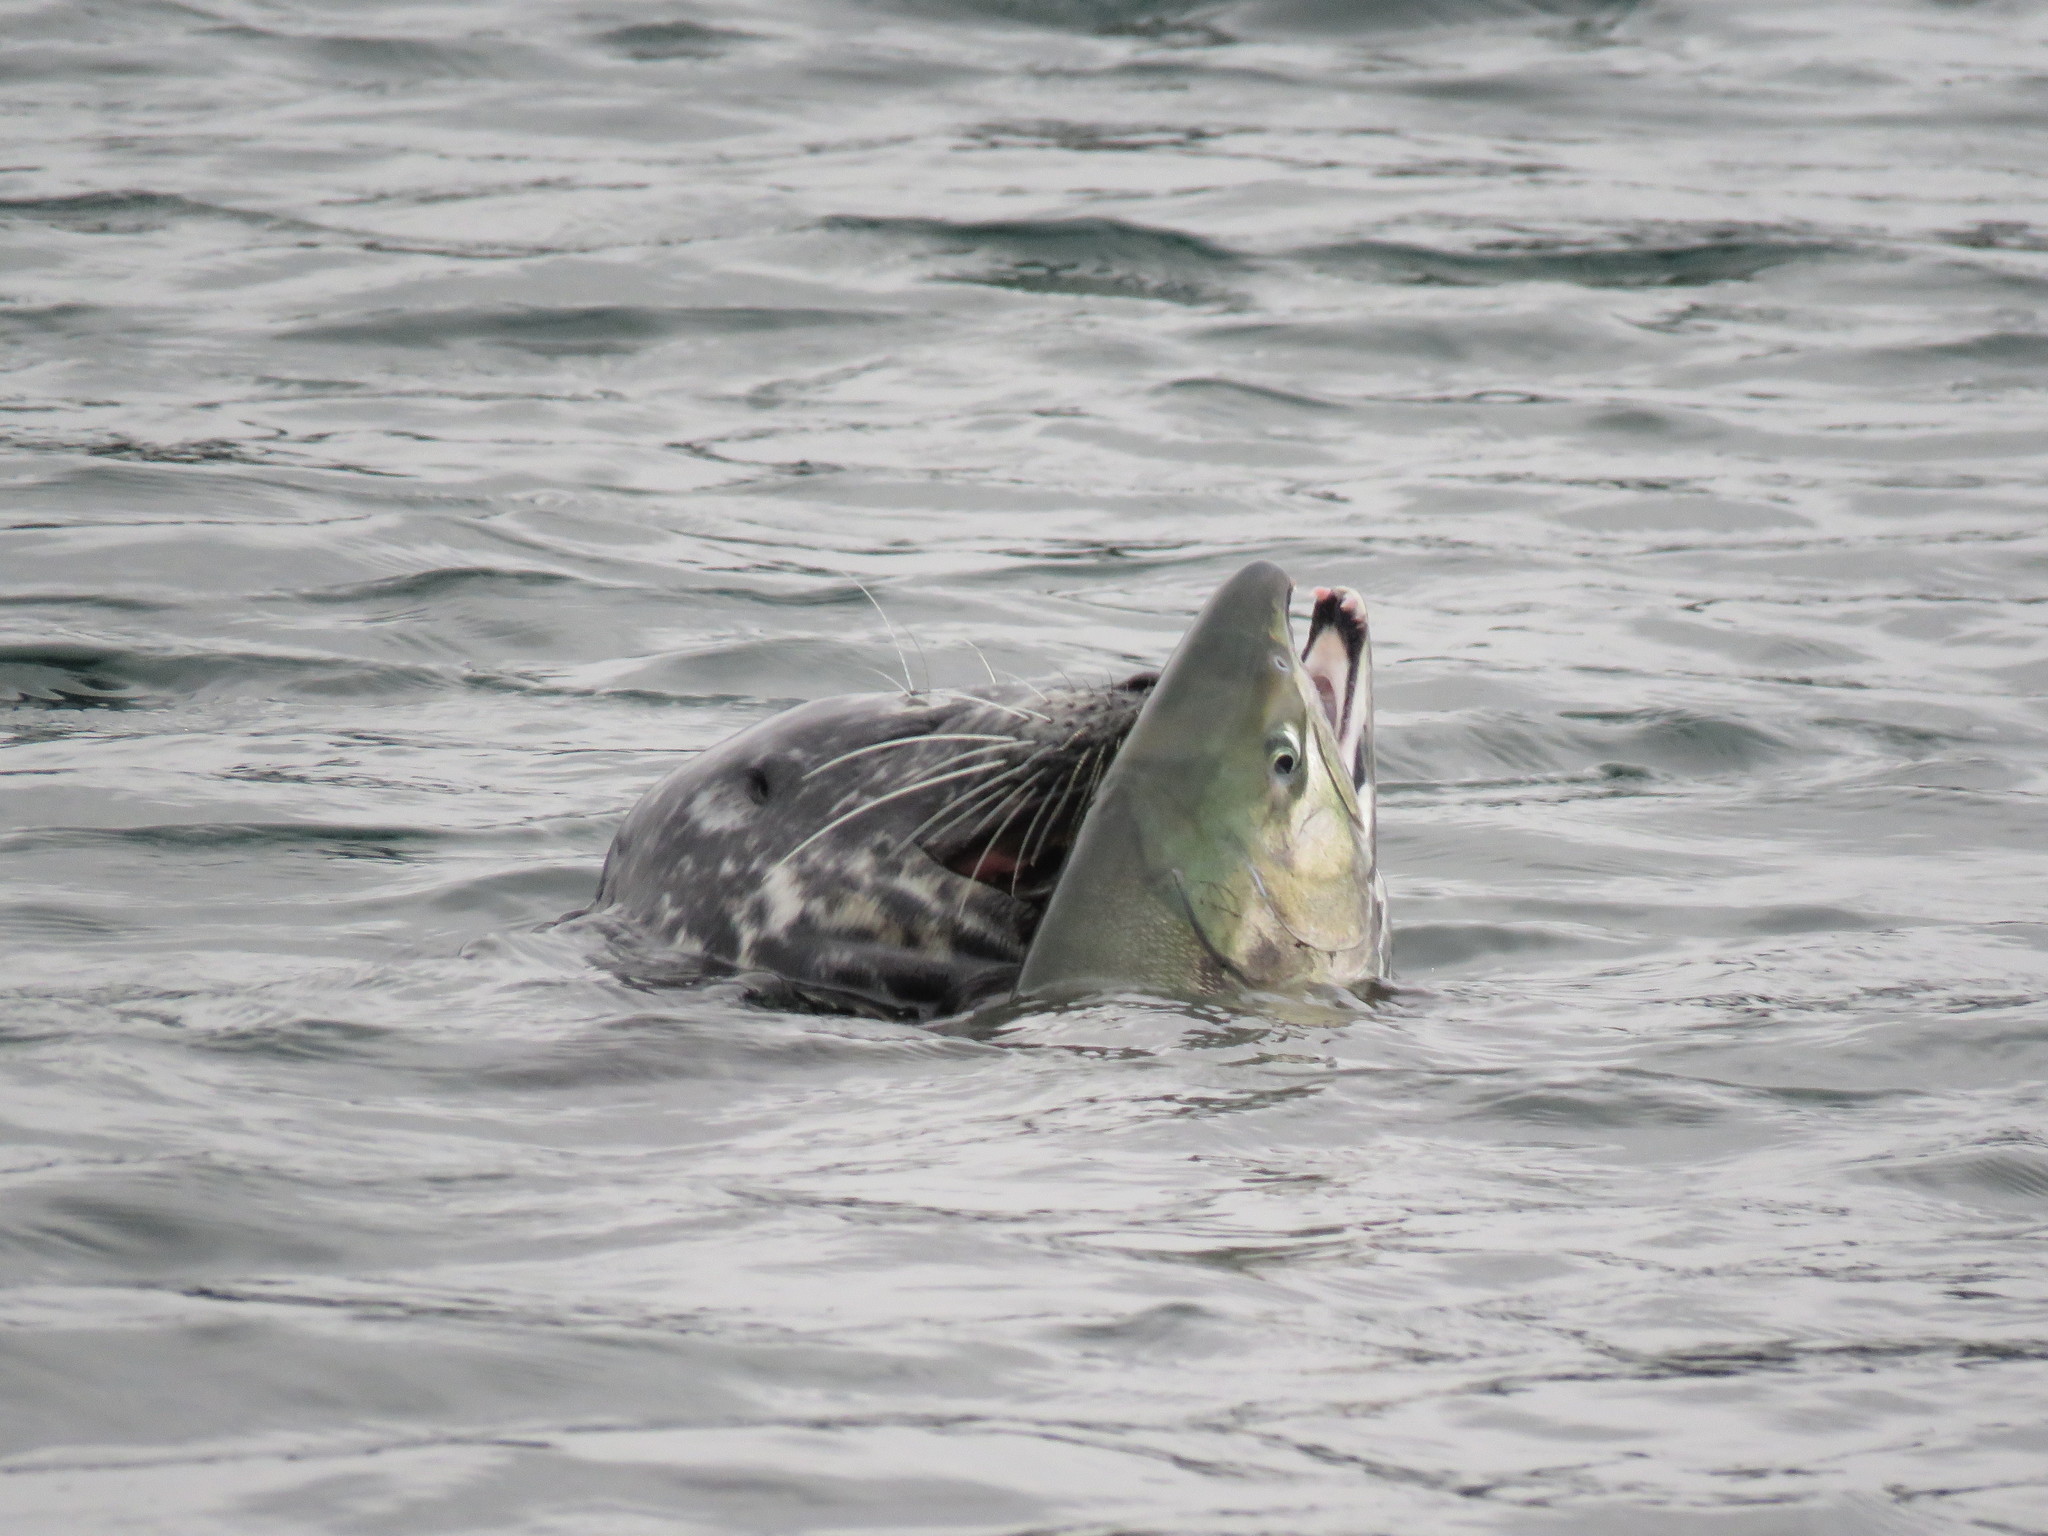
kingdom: Animalia
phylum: Chordata
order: Salmoniformes
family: Salmonidae
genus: Oncorhynchus
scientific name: Oncorhynchus keta
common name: Chum salmon
